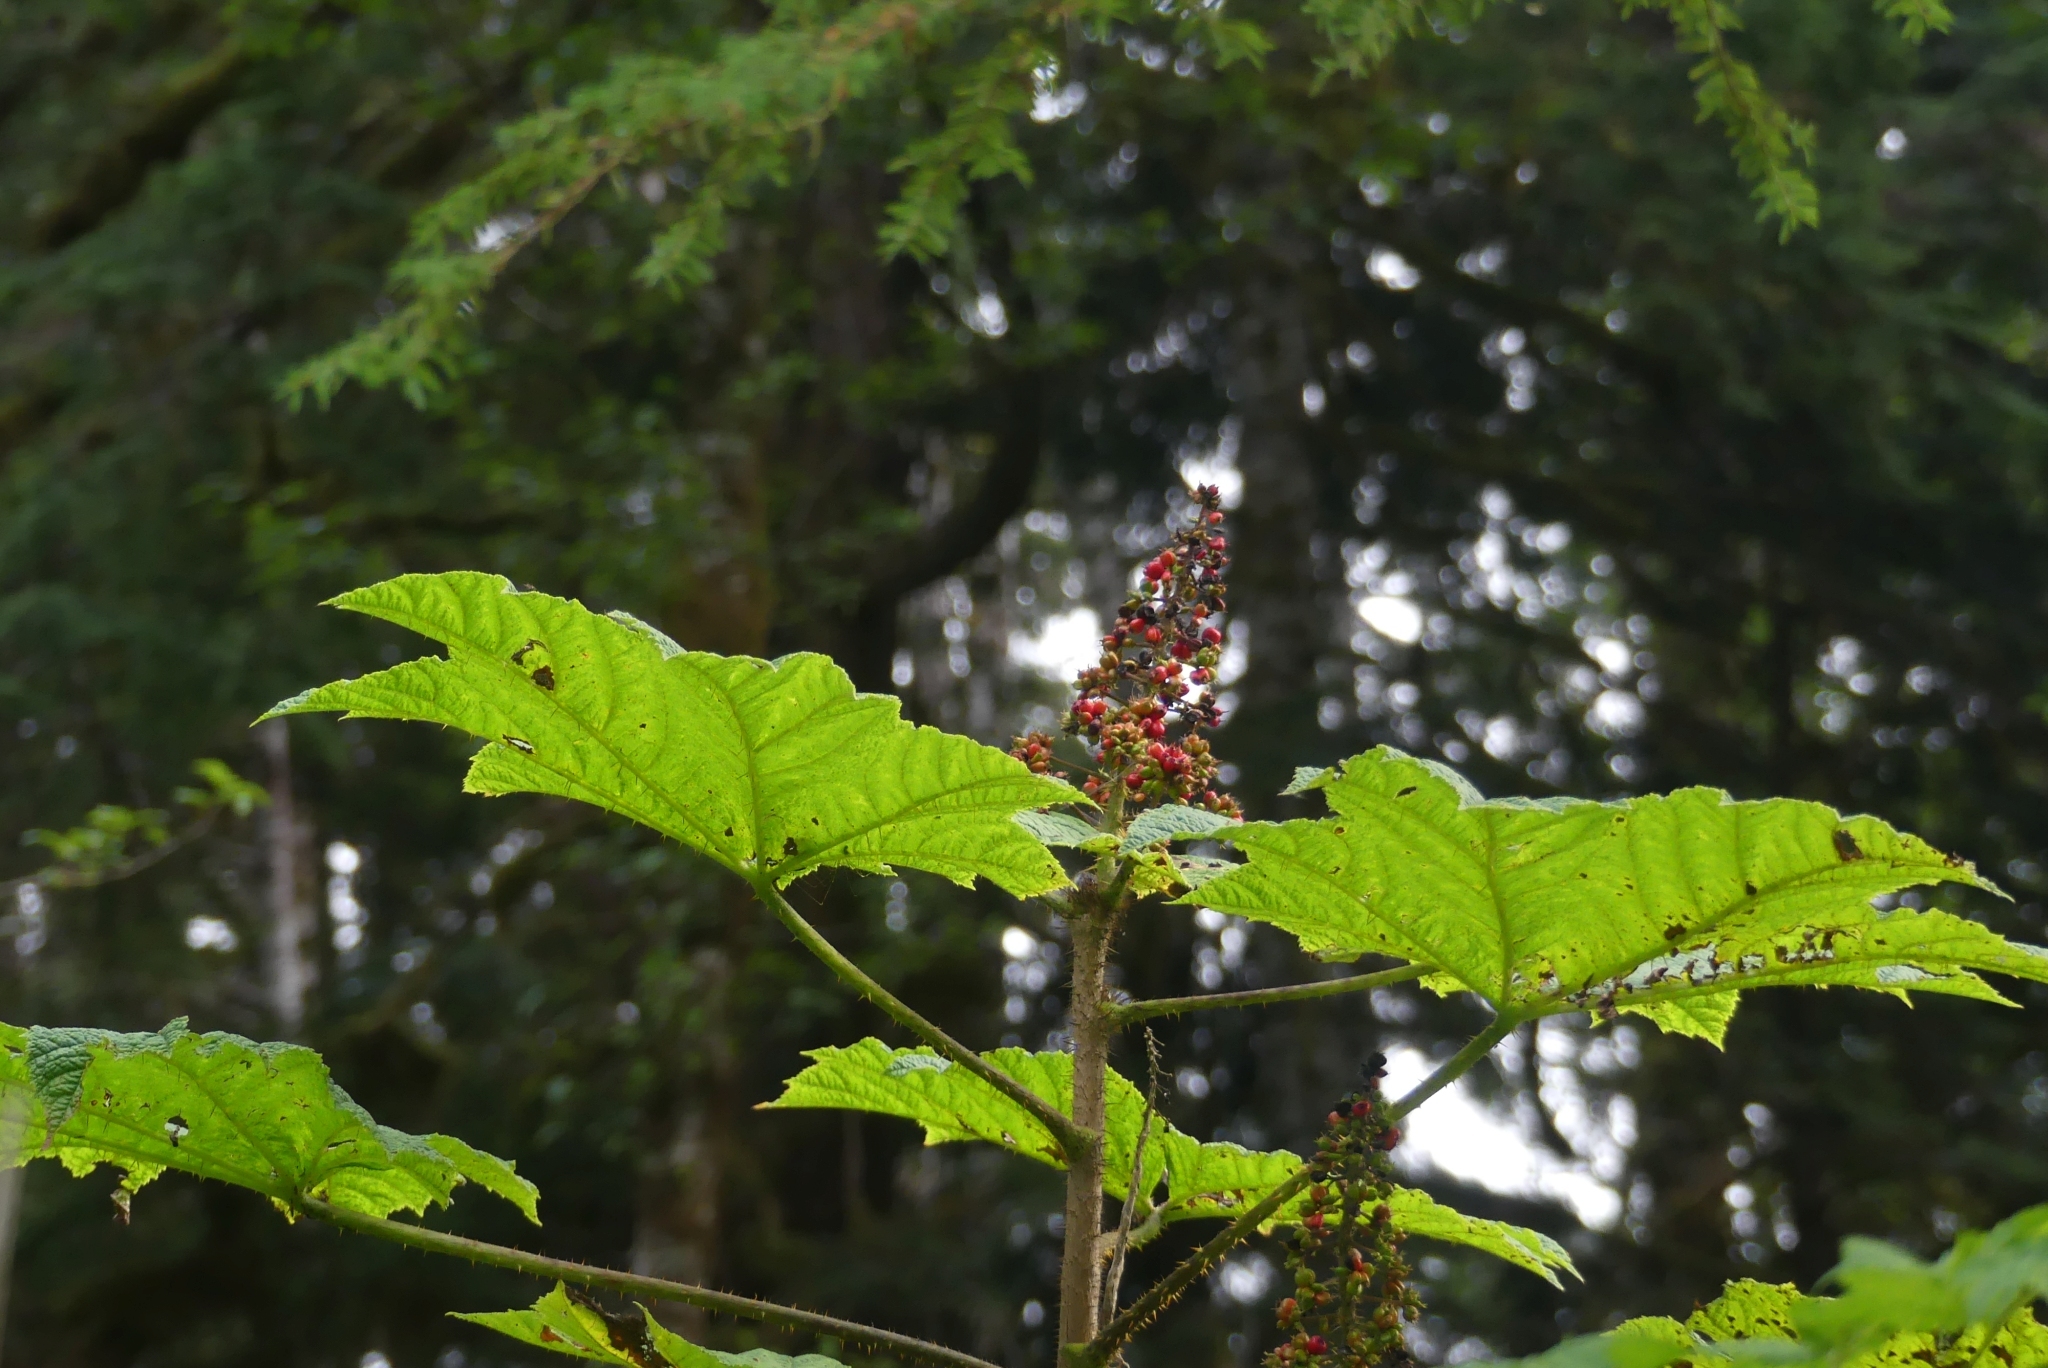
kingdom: Plantae
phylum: Tracheophyta
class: Magnoliopsida
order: Apiales
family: Araliaceae
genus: Oplopanax
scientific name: Oplopanax horridus
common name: Devil's walking-stick
